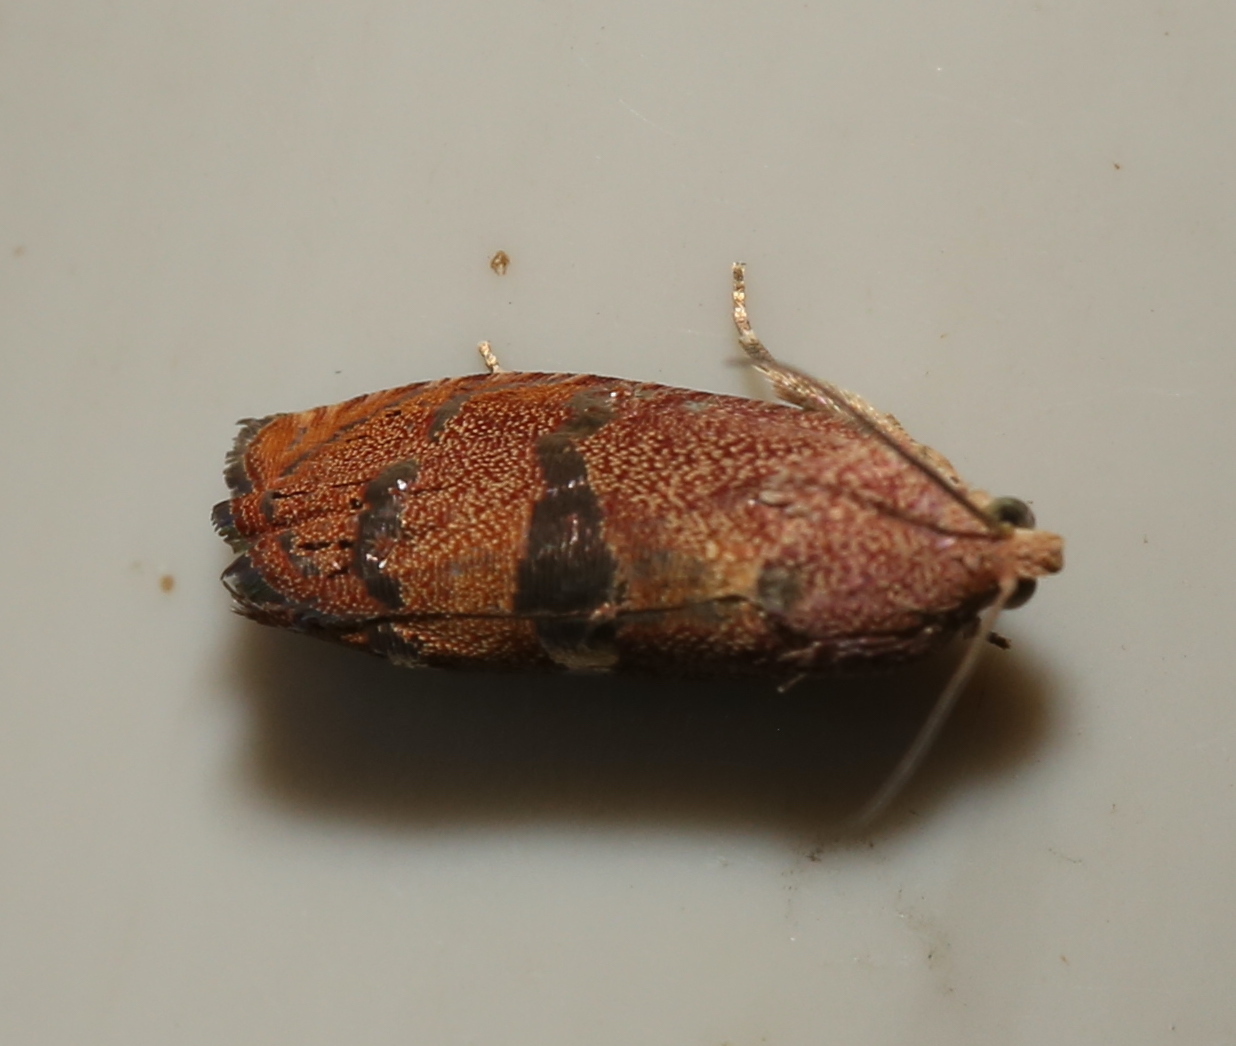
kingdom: Animalia
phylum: Arthropoda
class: Insecta
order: Lepidoptera
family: Tortricidae
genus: Cydia
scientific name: Cydia latiferreana
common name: Filbertworm moth
